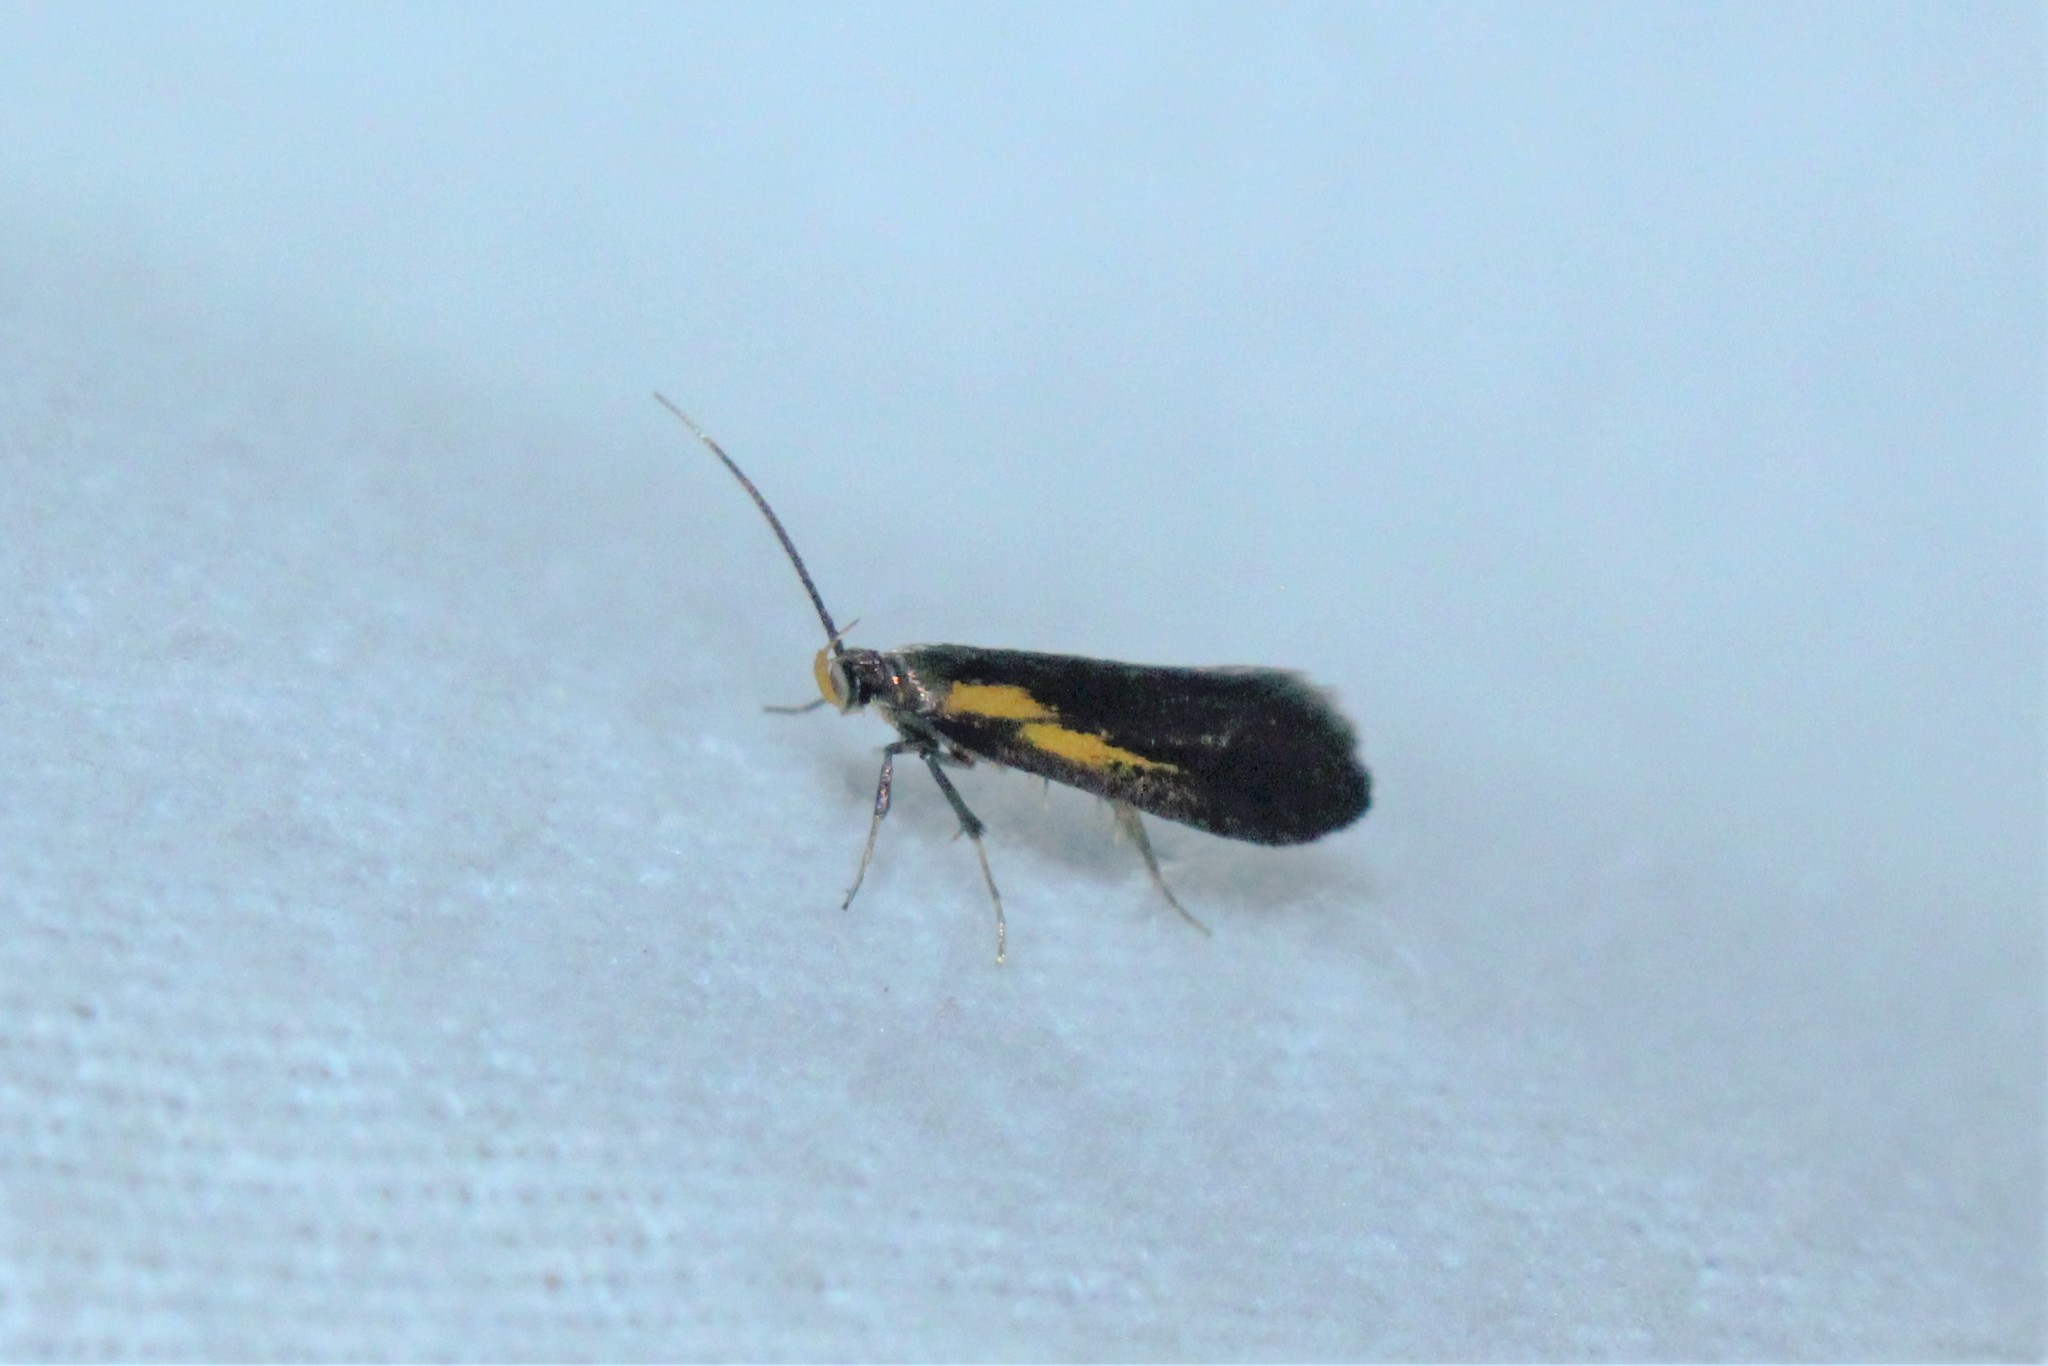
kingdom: Animalia
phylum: Arthropoda
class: Insecta
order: Lepidoptera
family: Oecophoridae
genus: Mathildana
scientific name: Mathildana newmanella
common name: Newman's mathildana moth
